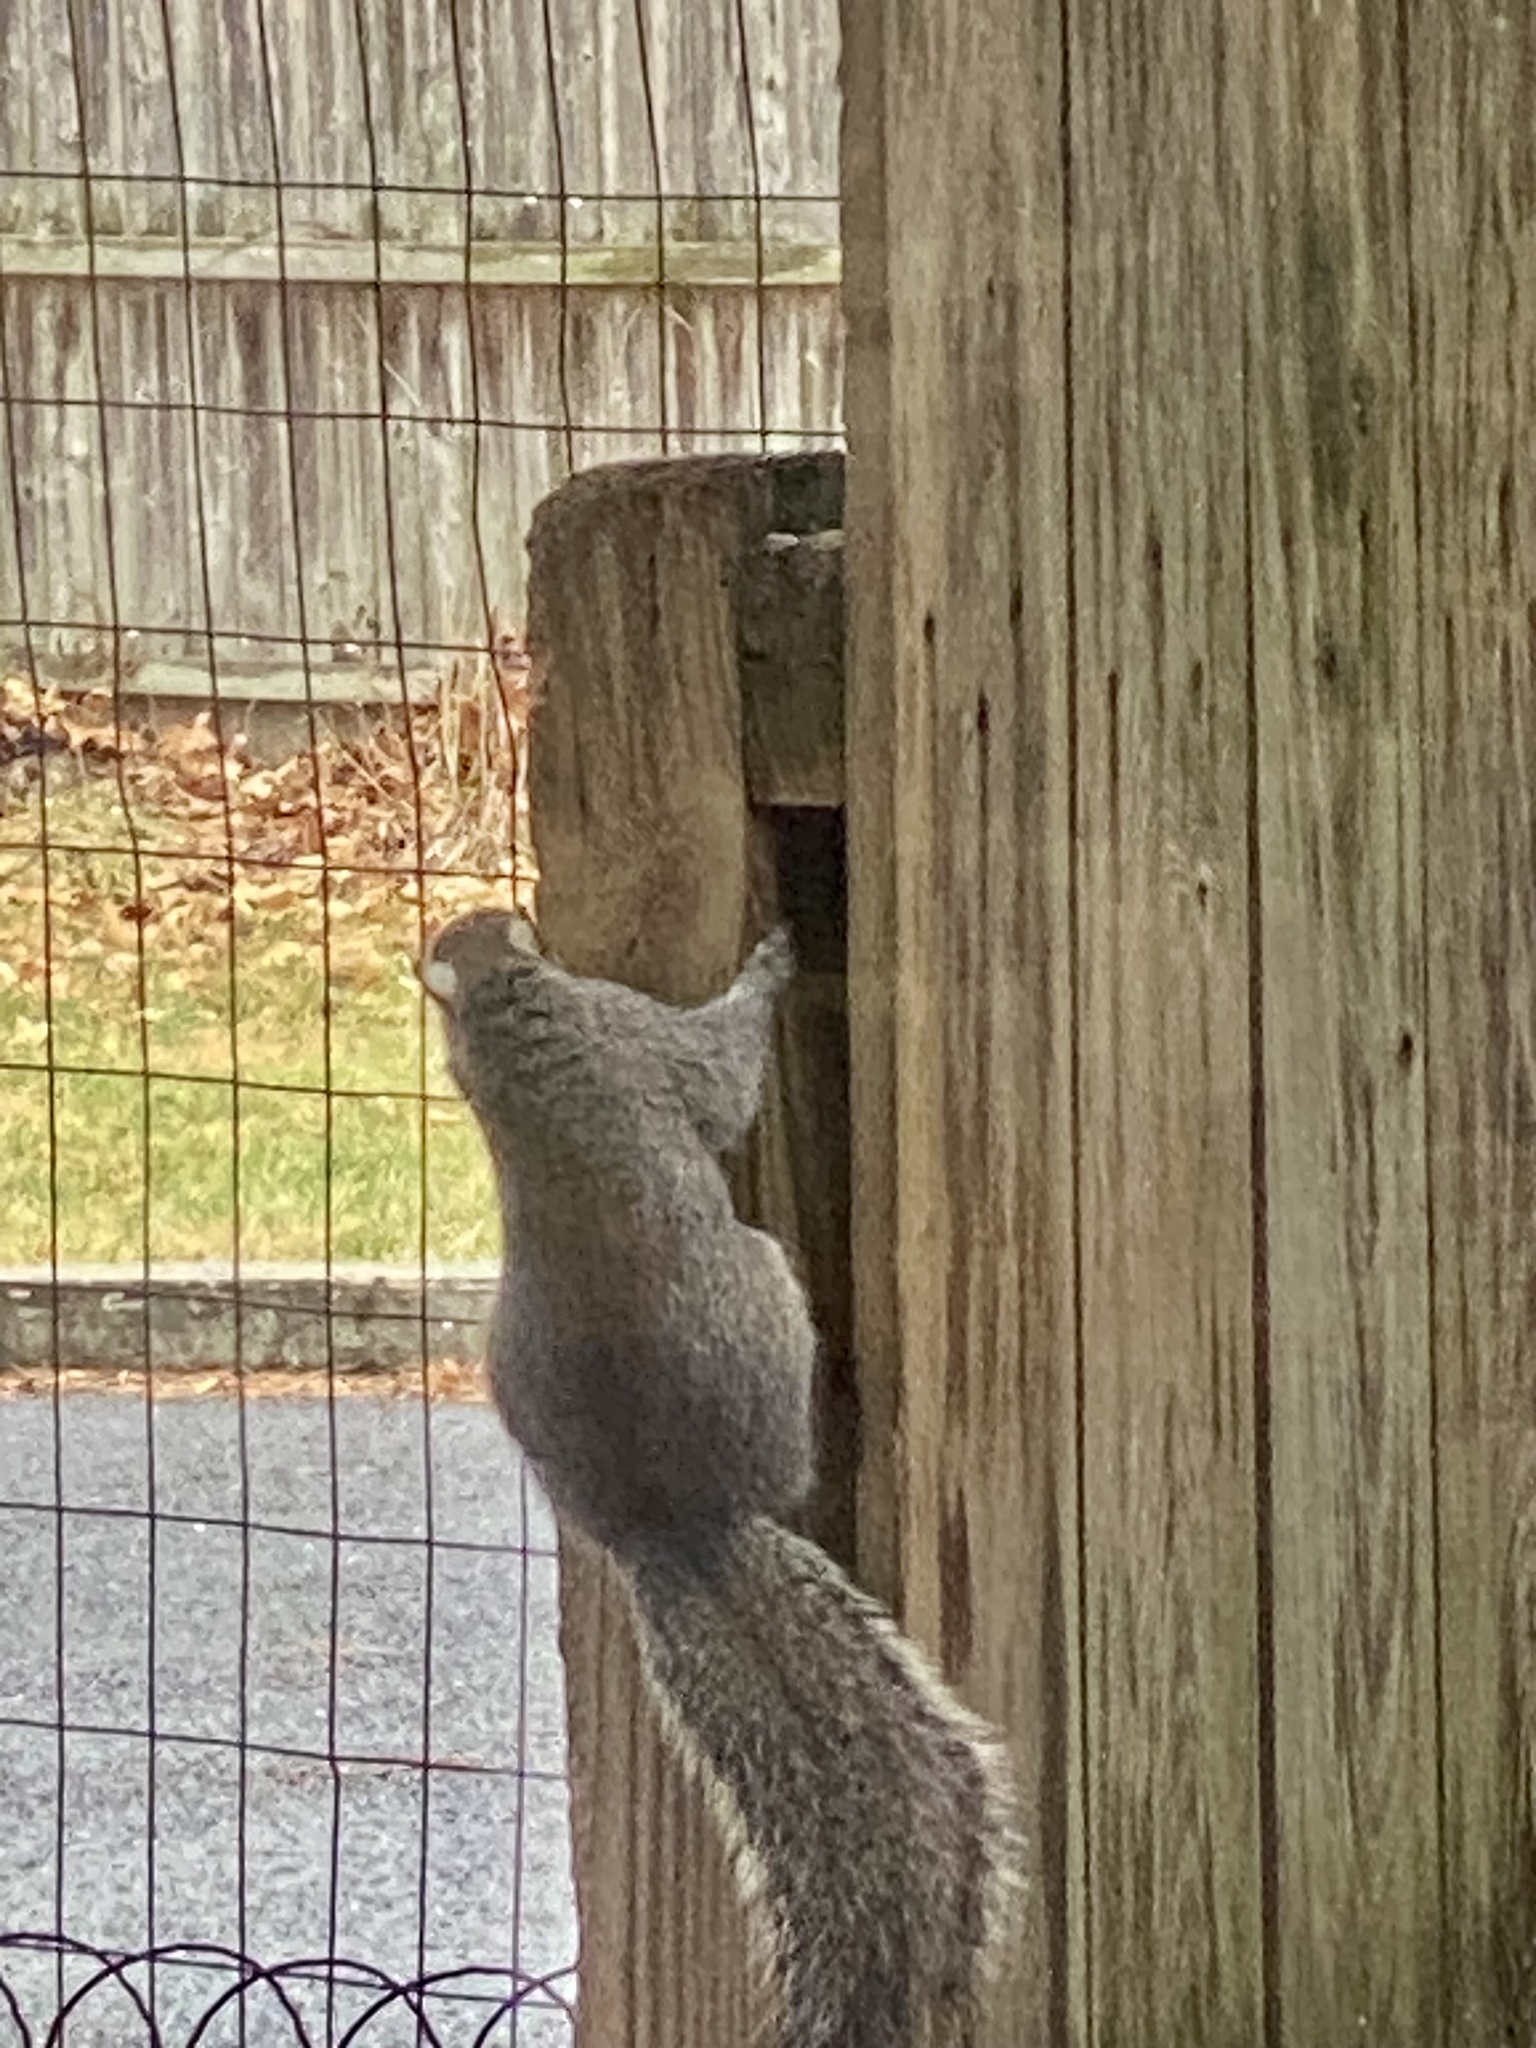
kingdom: Animalia
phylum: Chordata
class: Mammalia
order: Rodentia
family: Sciuridae
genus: Sciurus
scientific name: Sciurus carolinensis
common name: Eastern gray squirrel
